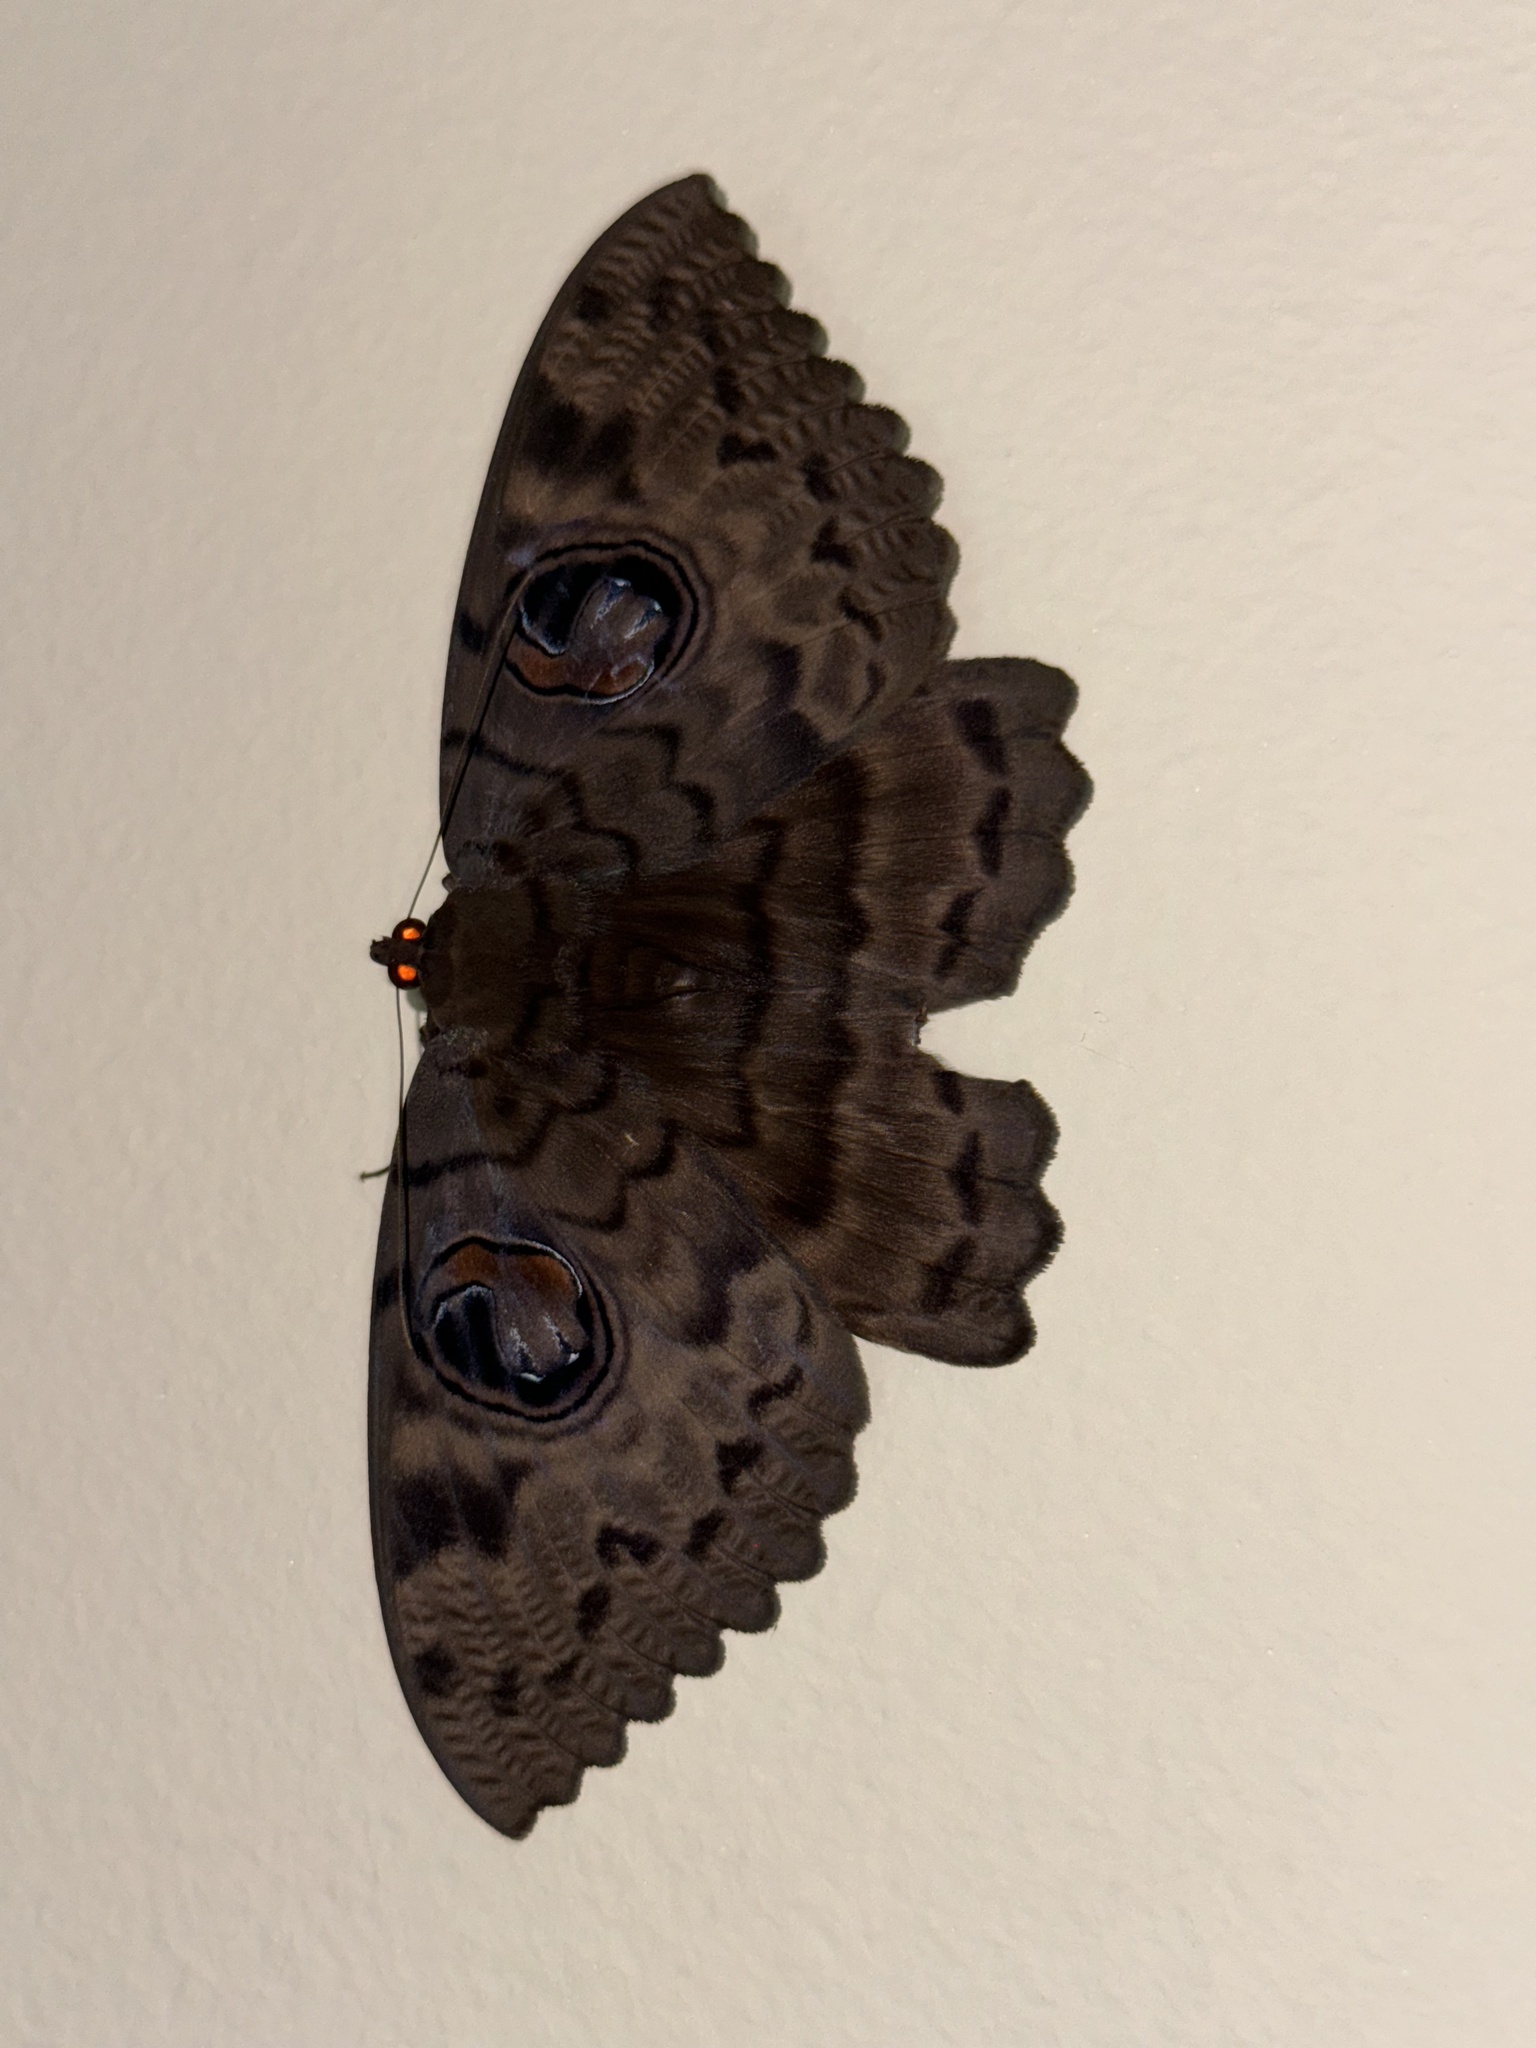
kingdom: Animalia
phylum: Arthropoda
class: Insecta
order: Lepidoptera
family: Erebidae
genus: Erebus
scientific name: Erebus walkeri
